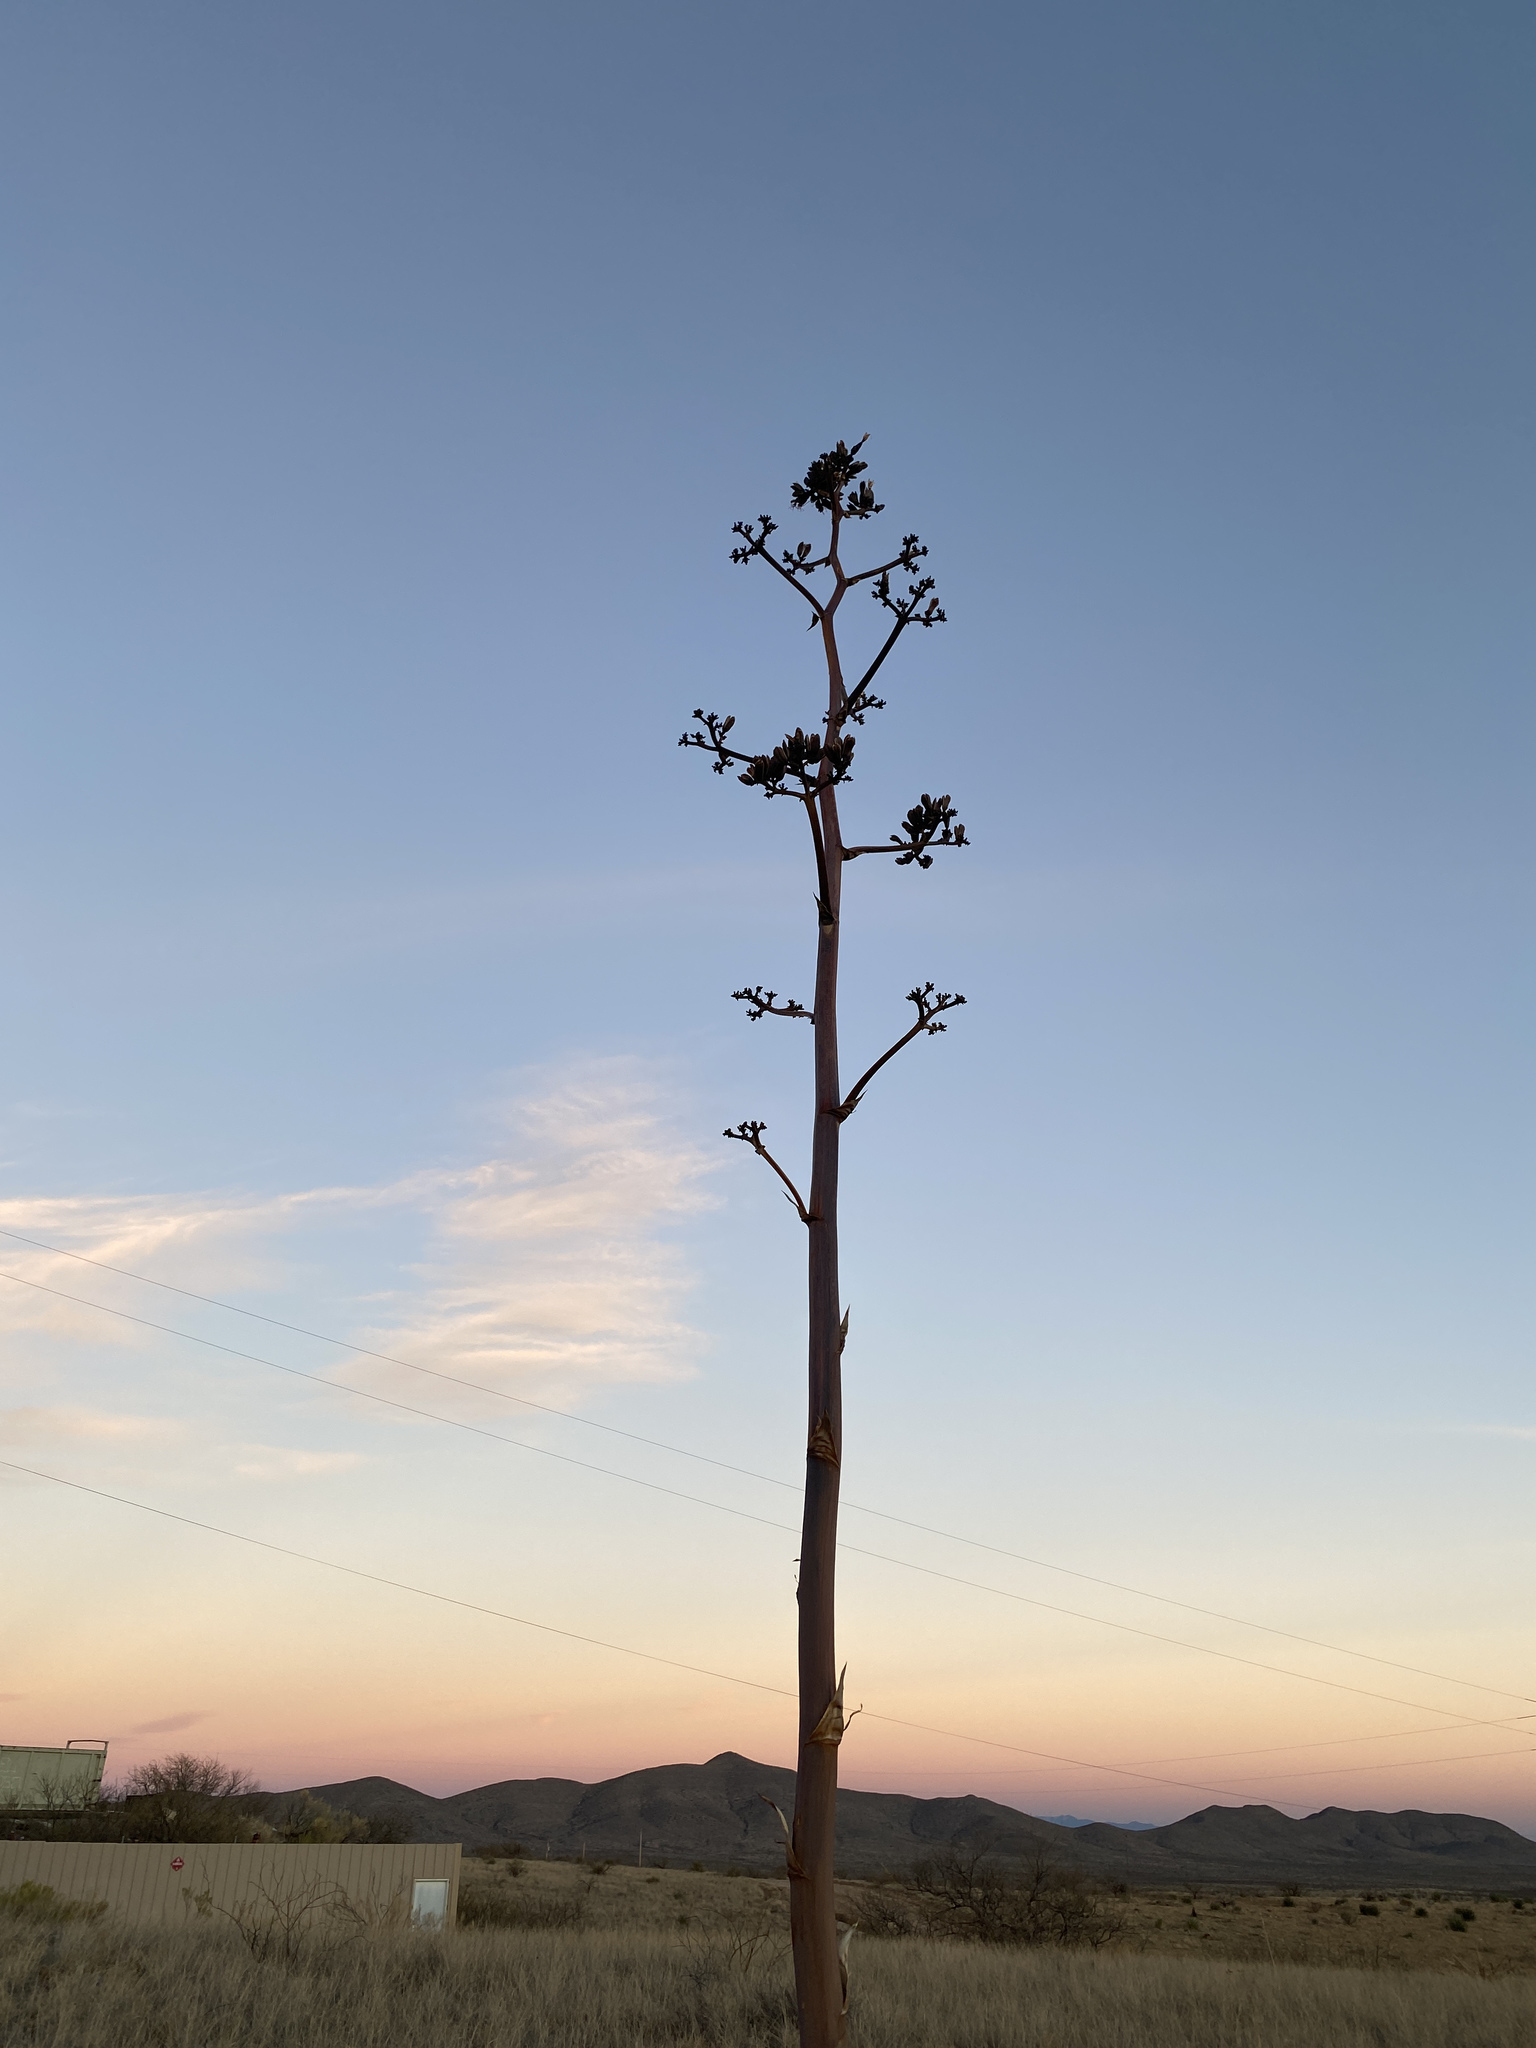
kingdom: Plantae
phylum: Tracheophyta
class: Liliopsida
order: Asparagales
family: Asparagaceae
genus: Agave
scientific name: Agave palmeri
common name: Palmer agave
